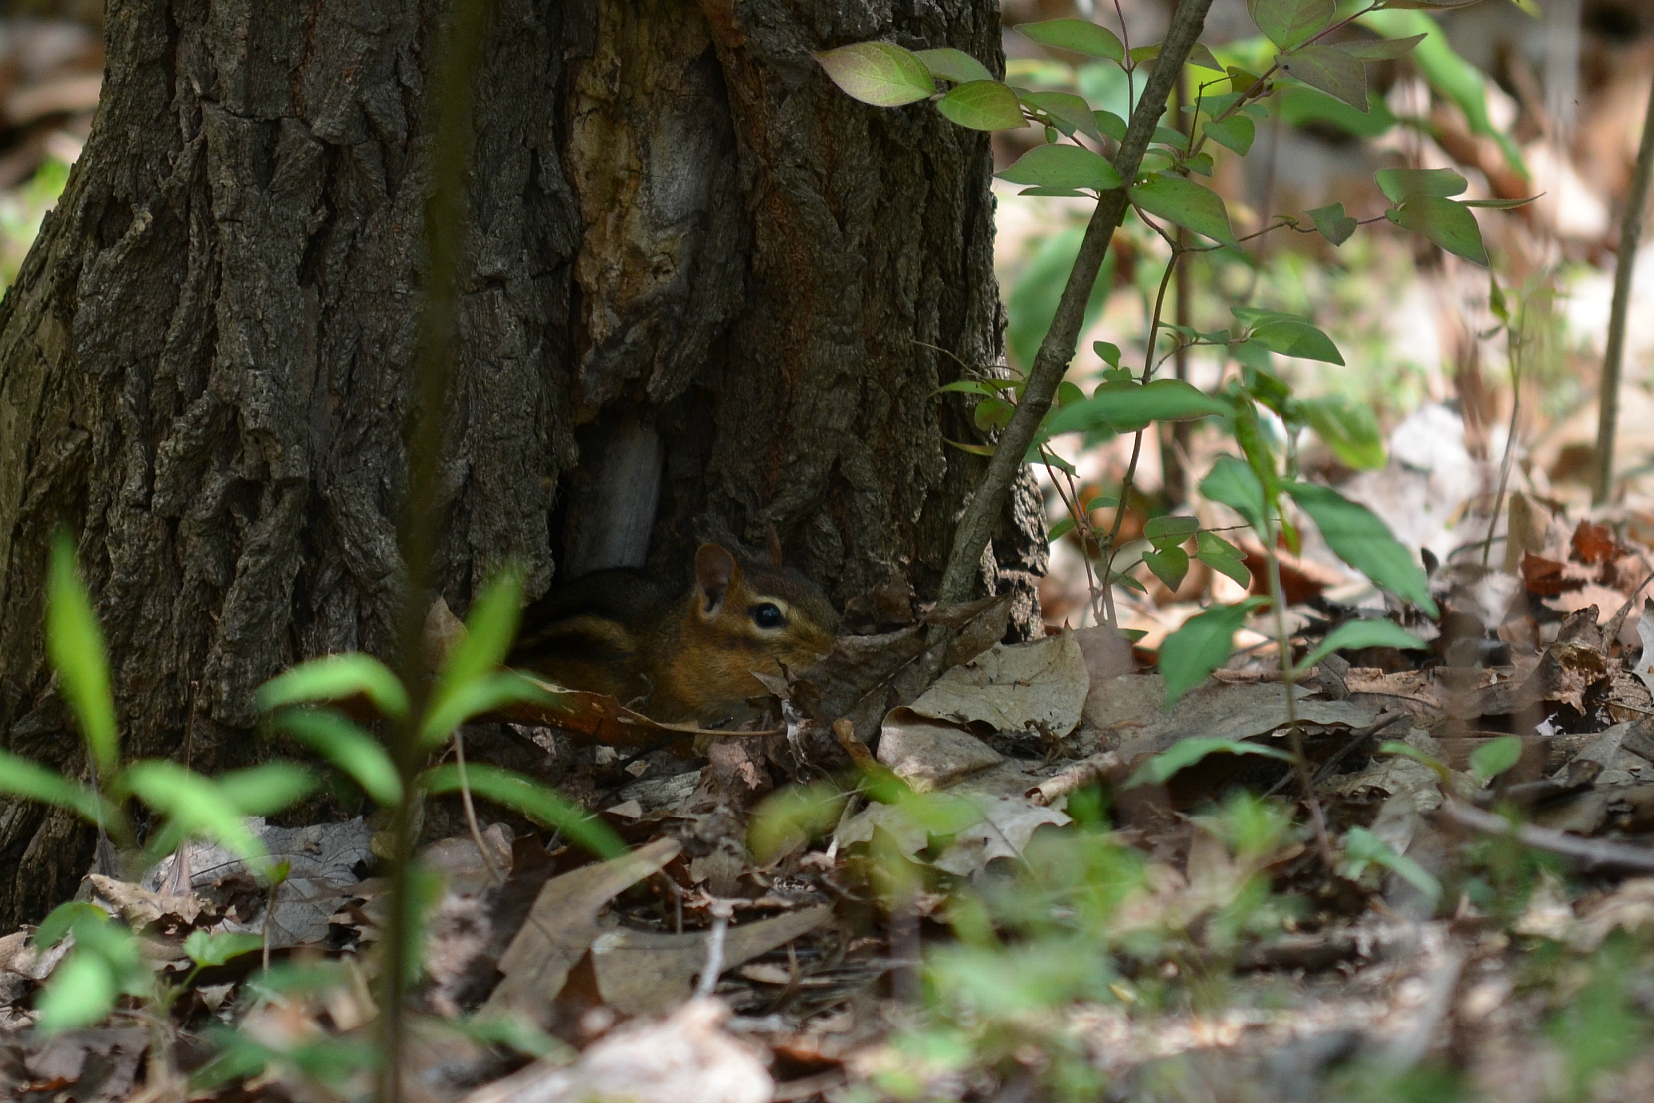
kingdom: Animalia
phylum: Chordata
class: Mammalia
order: Rodentia
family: Sciuridae
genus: Tamias
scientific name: Tamias striatus
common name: Eastern chipmunk
